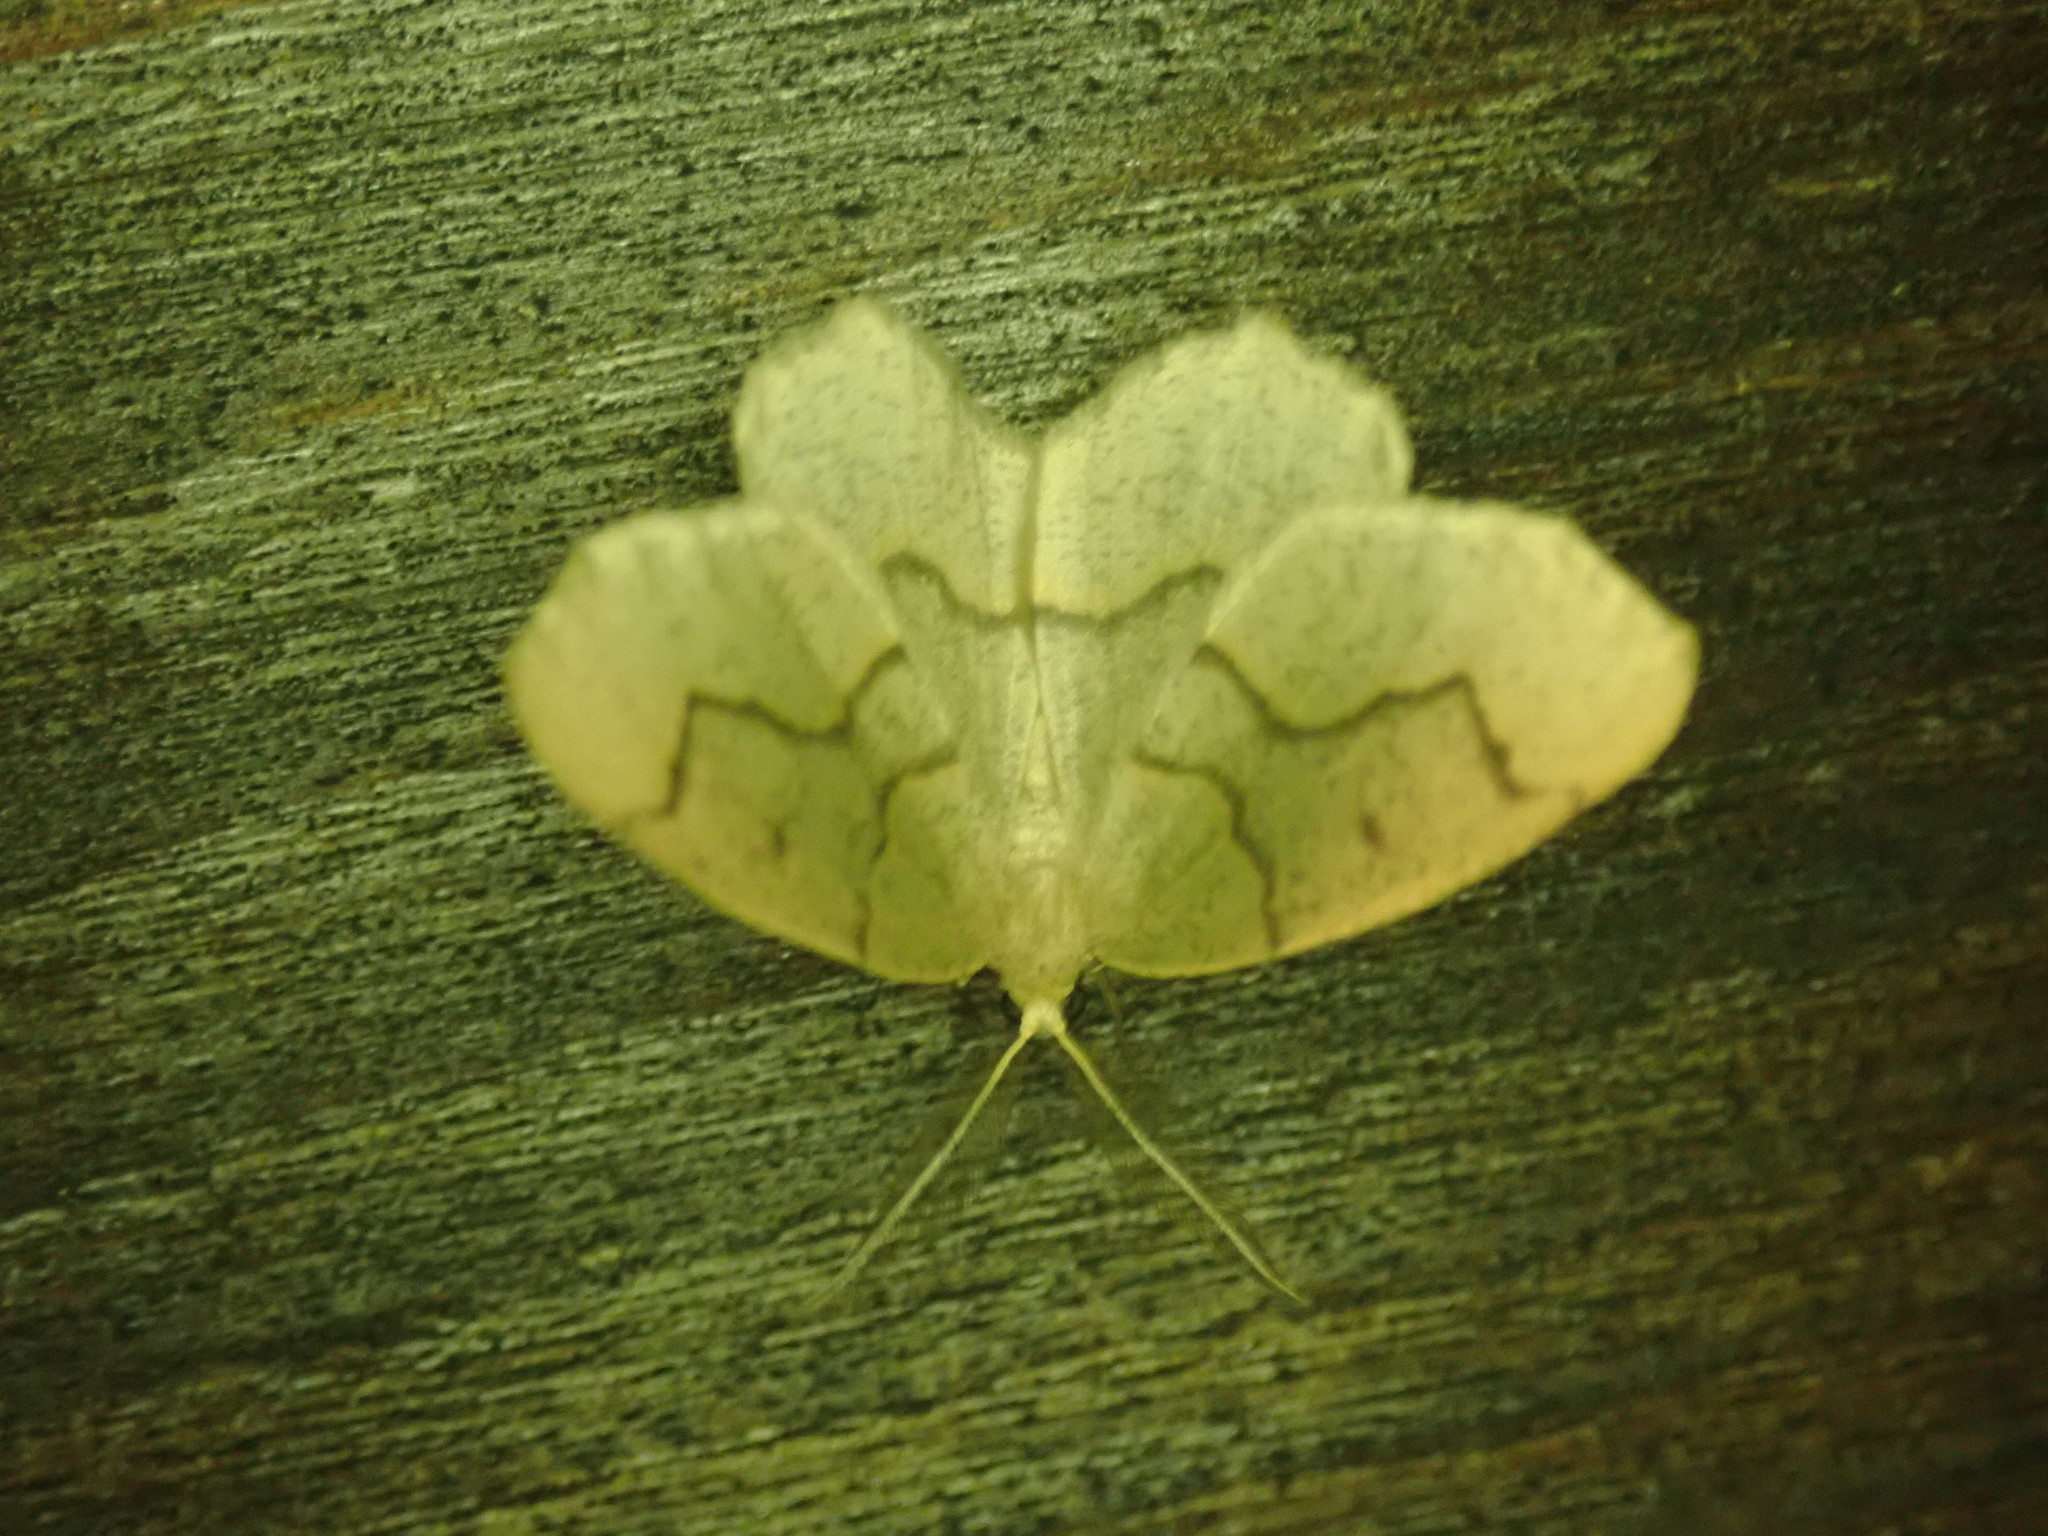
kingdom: Animalia
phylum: Arthropoda
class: Insecta
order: Lepidoptera
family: Geometridae
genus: Lambdina
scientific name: Lambdina fiscellaria
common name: Hemlock looper
